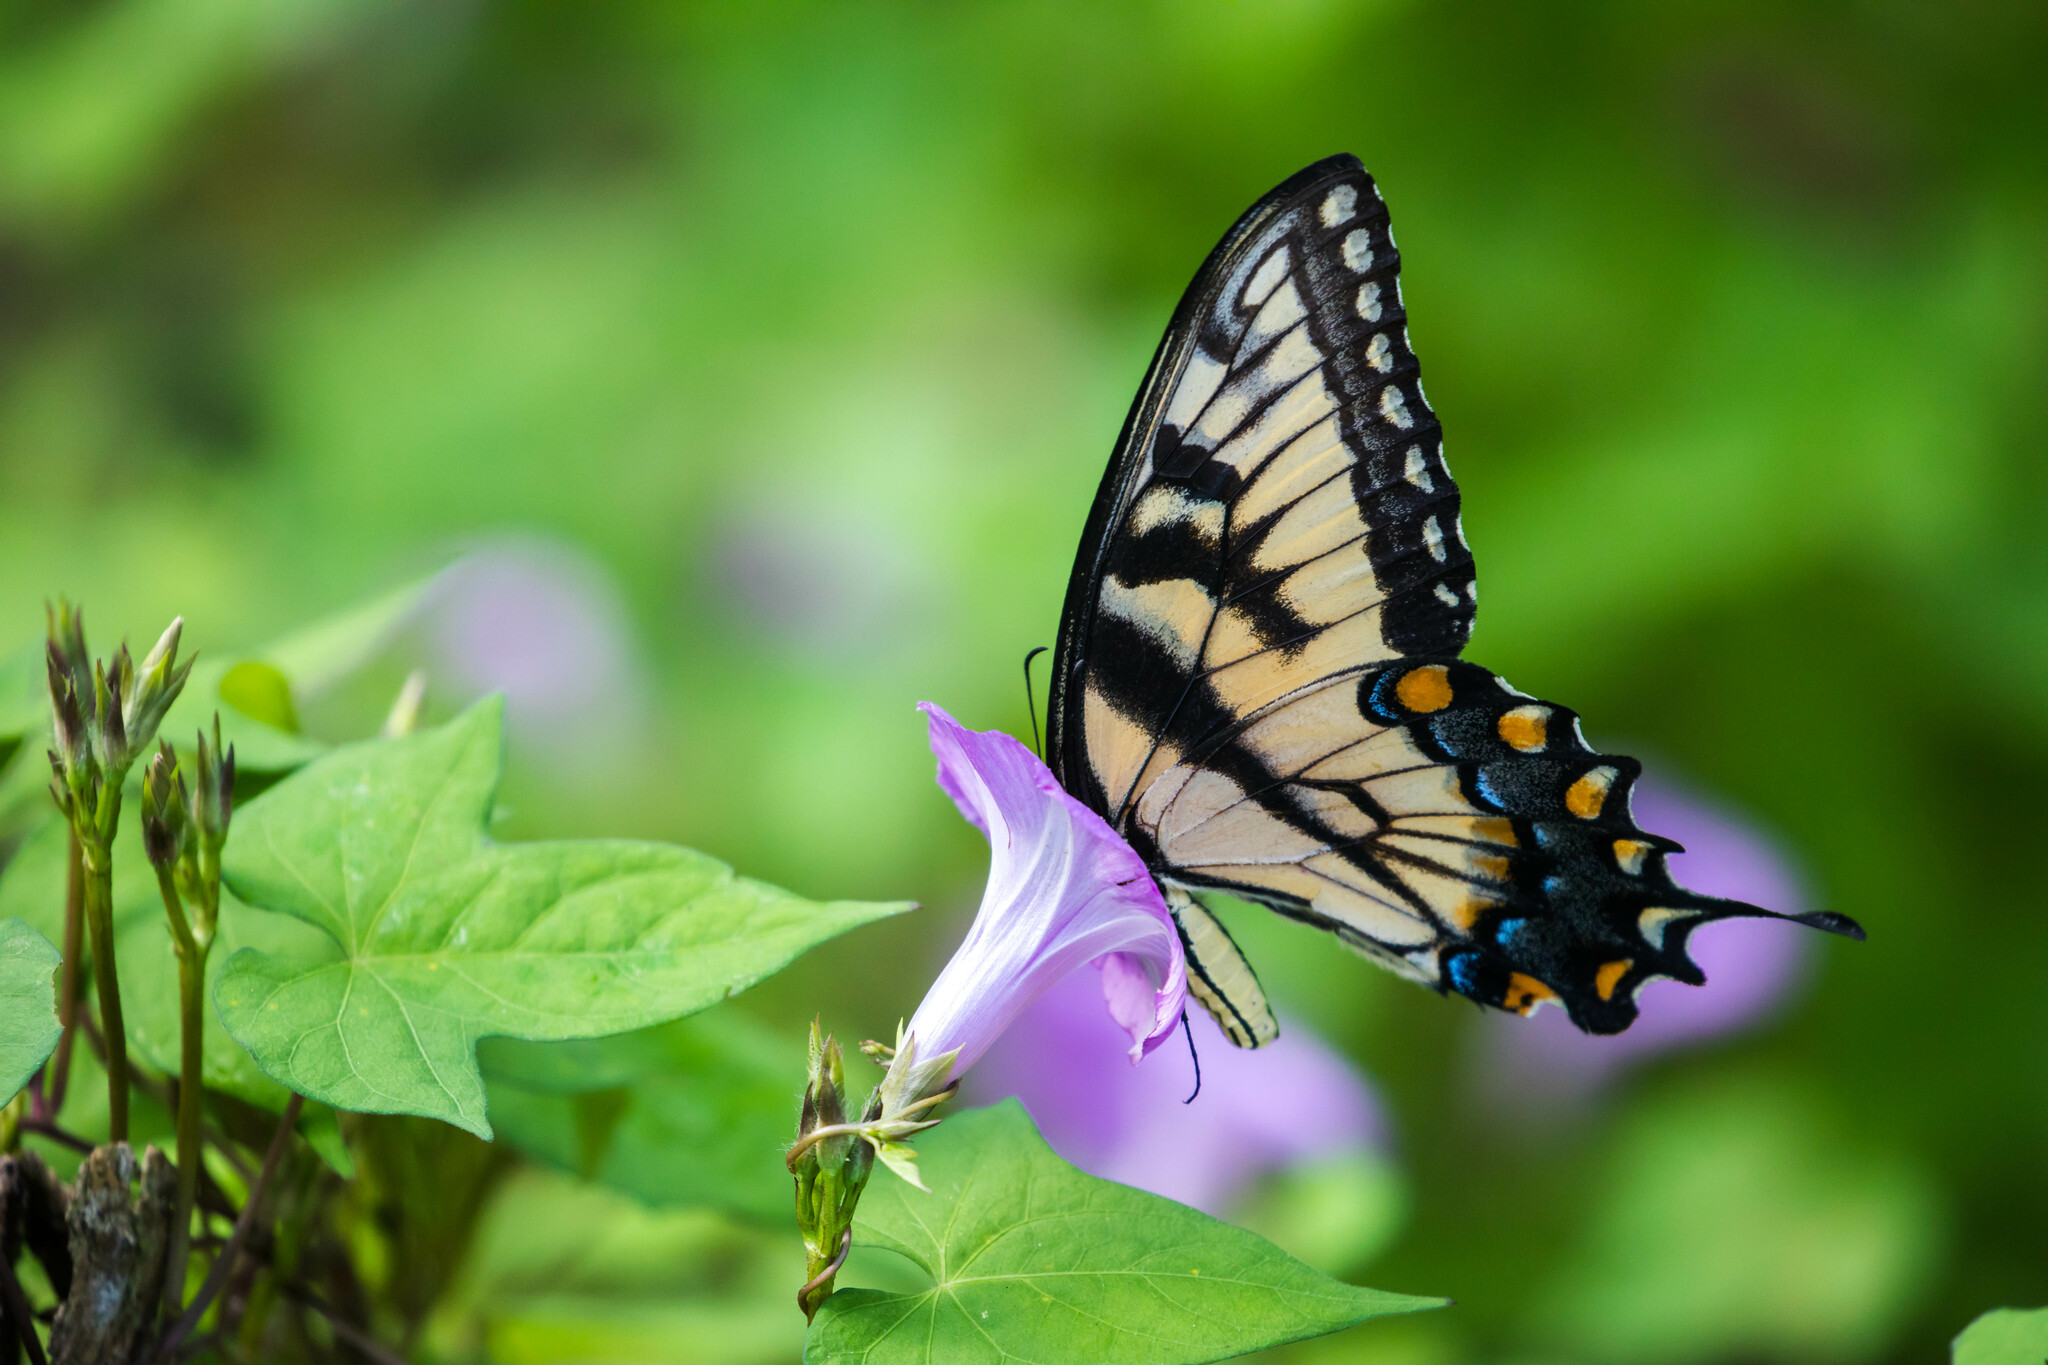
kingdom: Animalia
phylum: Arthropoda
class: Insecta
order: Lepidoptera
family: Papilionidae
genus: Papilio
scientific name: Papilio glaucus
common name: Tiger swallowtail
